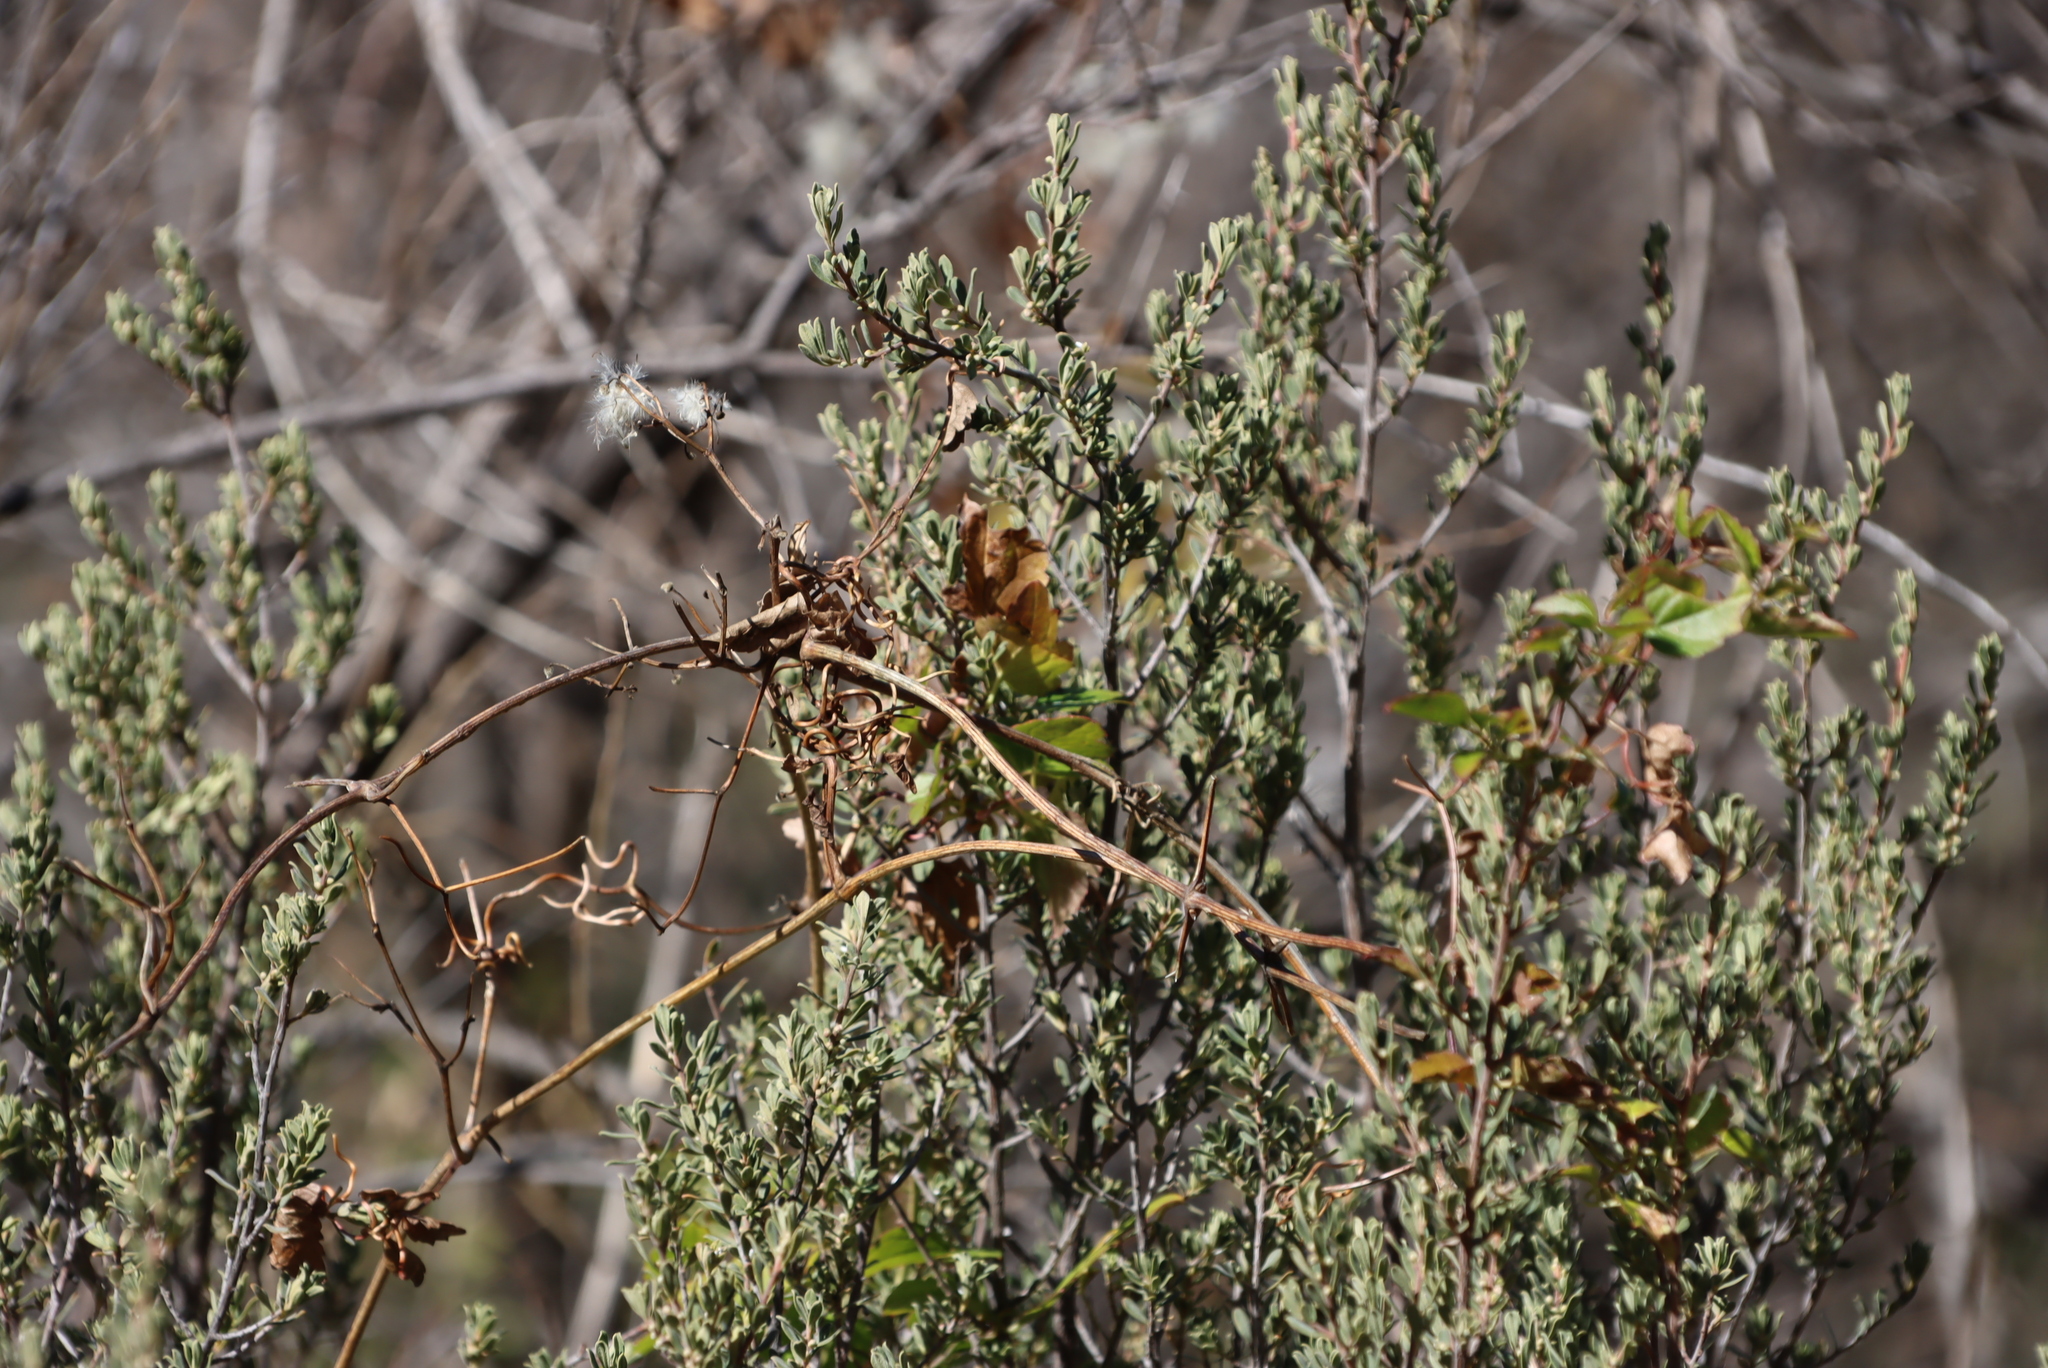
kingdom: Plantae
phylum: Tracheophyta
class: Magnoliopsida
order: Ranunculales
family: Ranunculaceae
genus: Clematis
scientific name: Clematis brachiata
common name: Traveler's-joy
